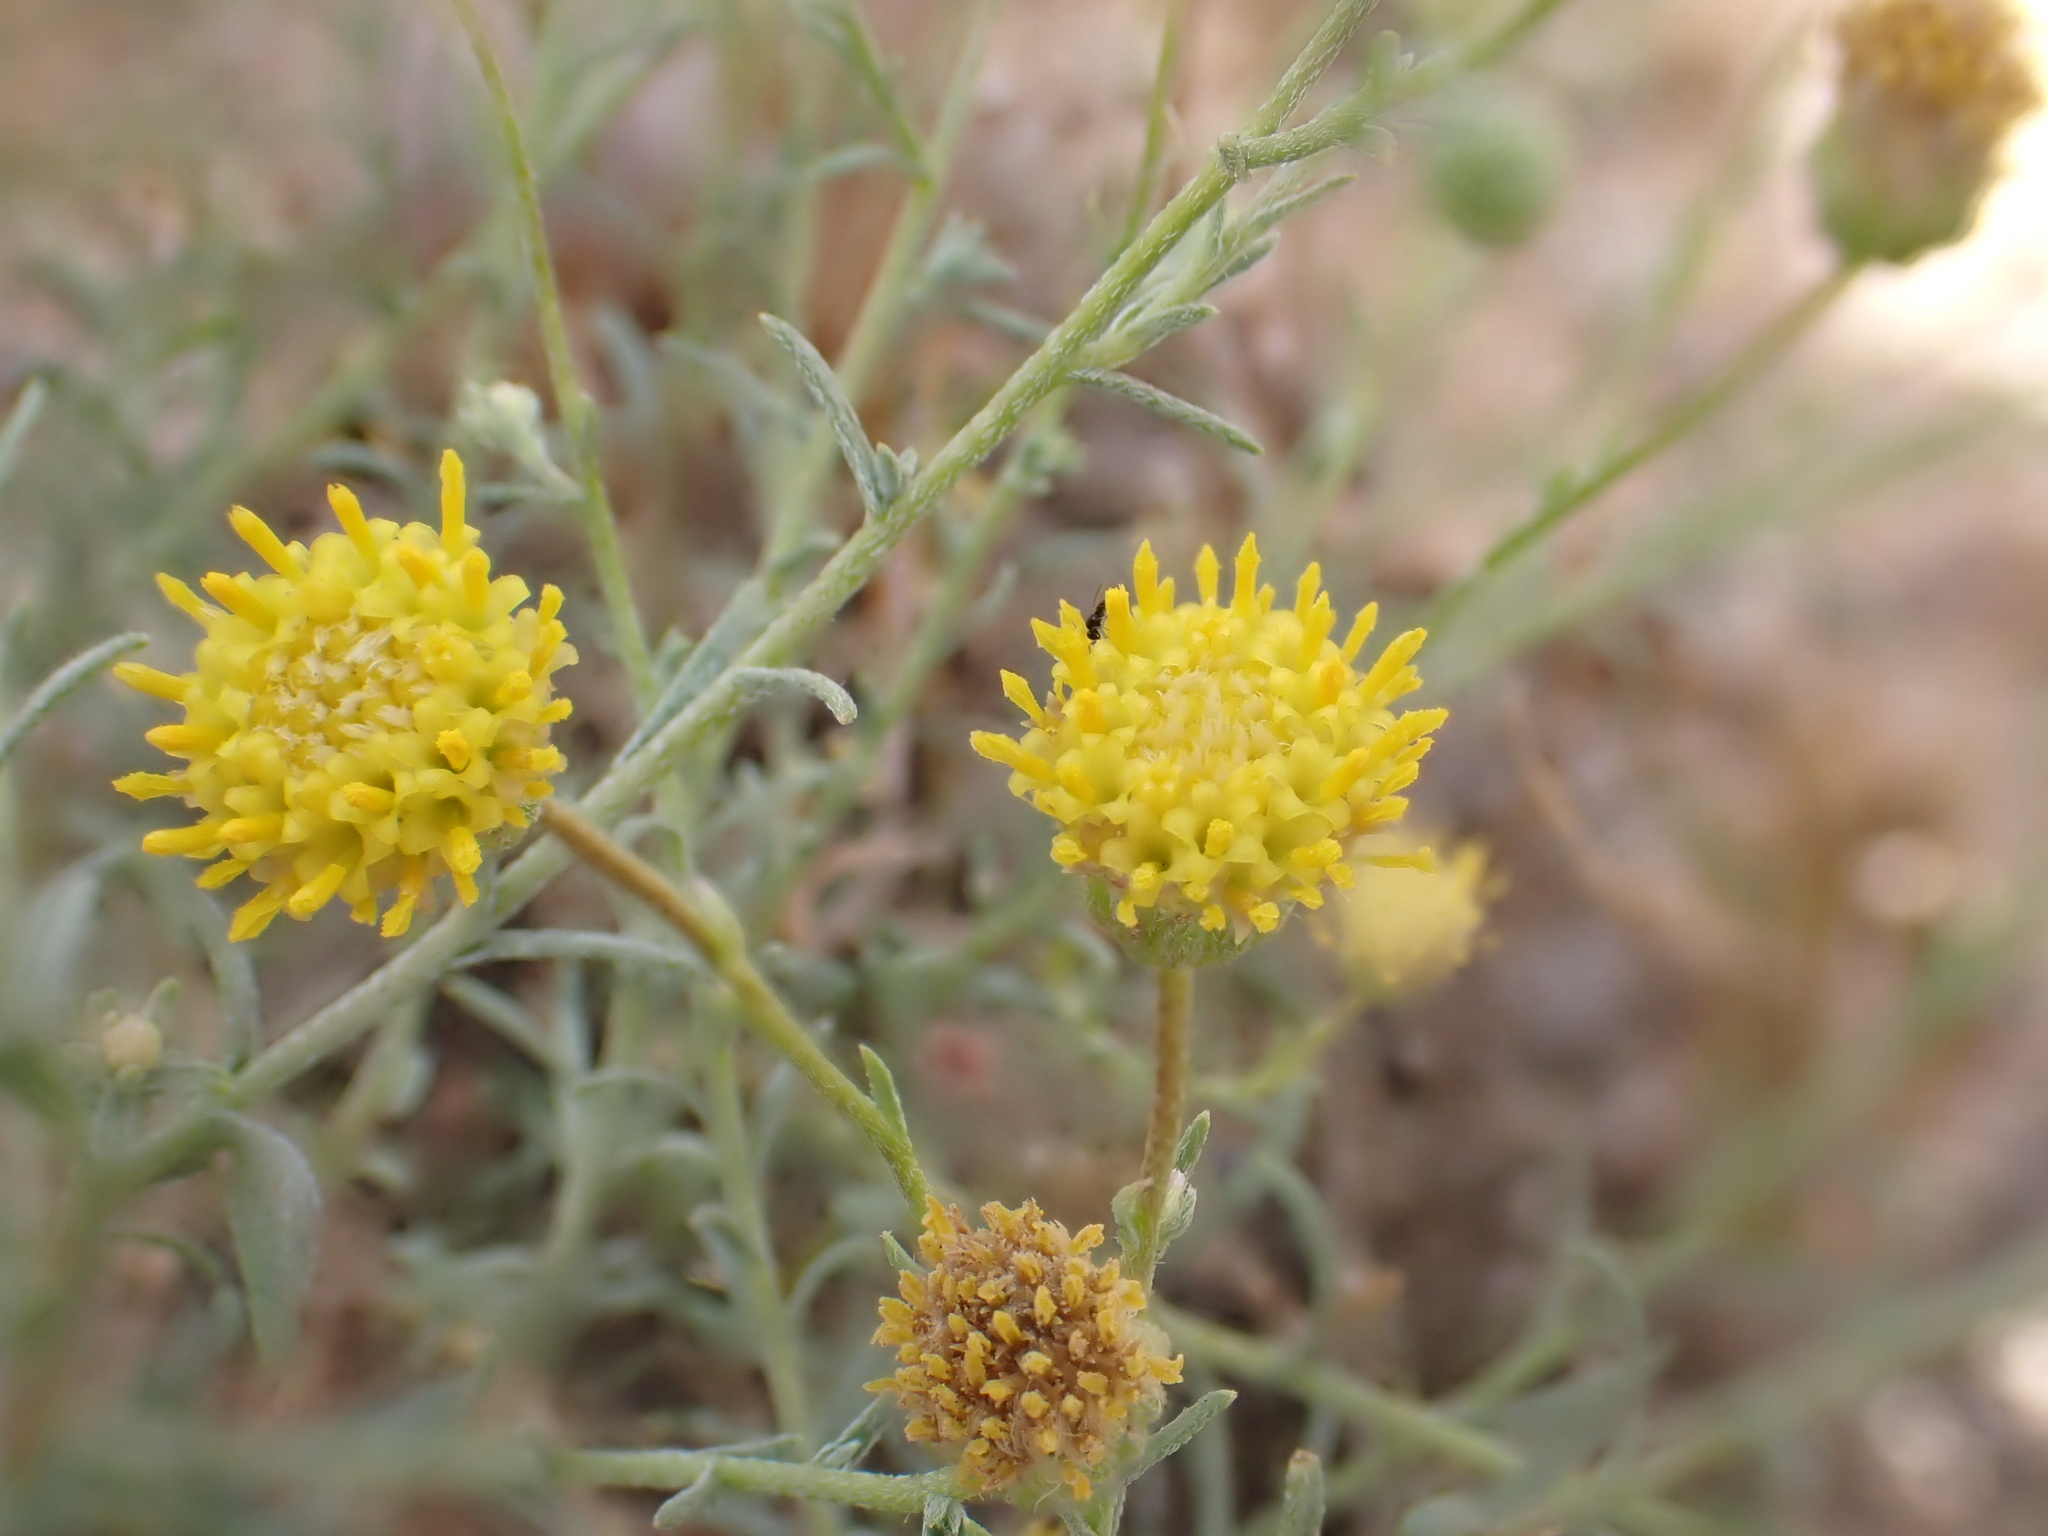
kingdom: Plantae
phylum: Tracheophyta
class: Magnoliopsida
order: Asterales
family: Asteraceae
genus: Nolletia
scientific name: Nolletia chrysocomoides
